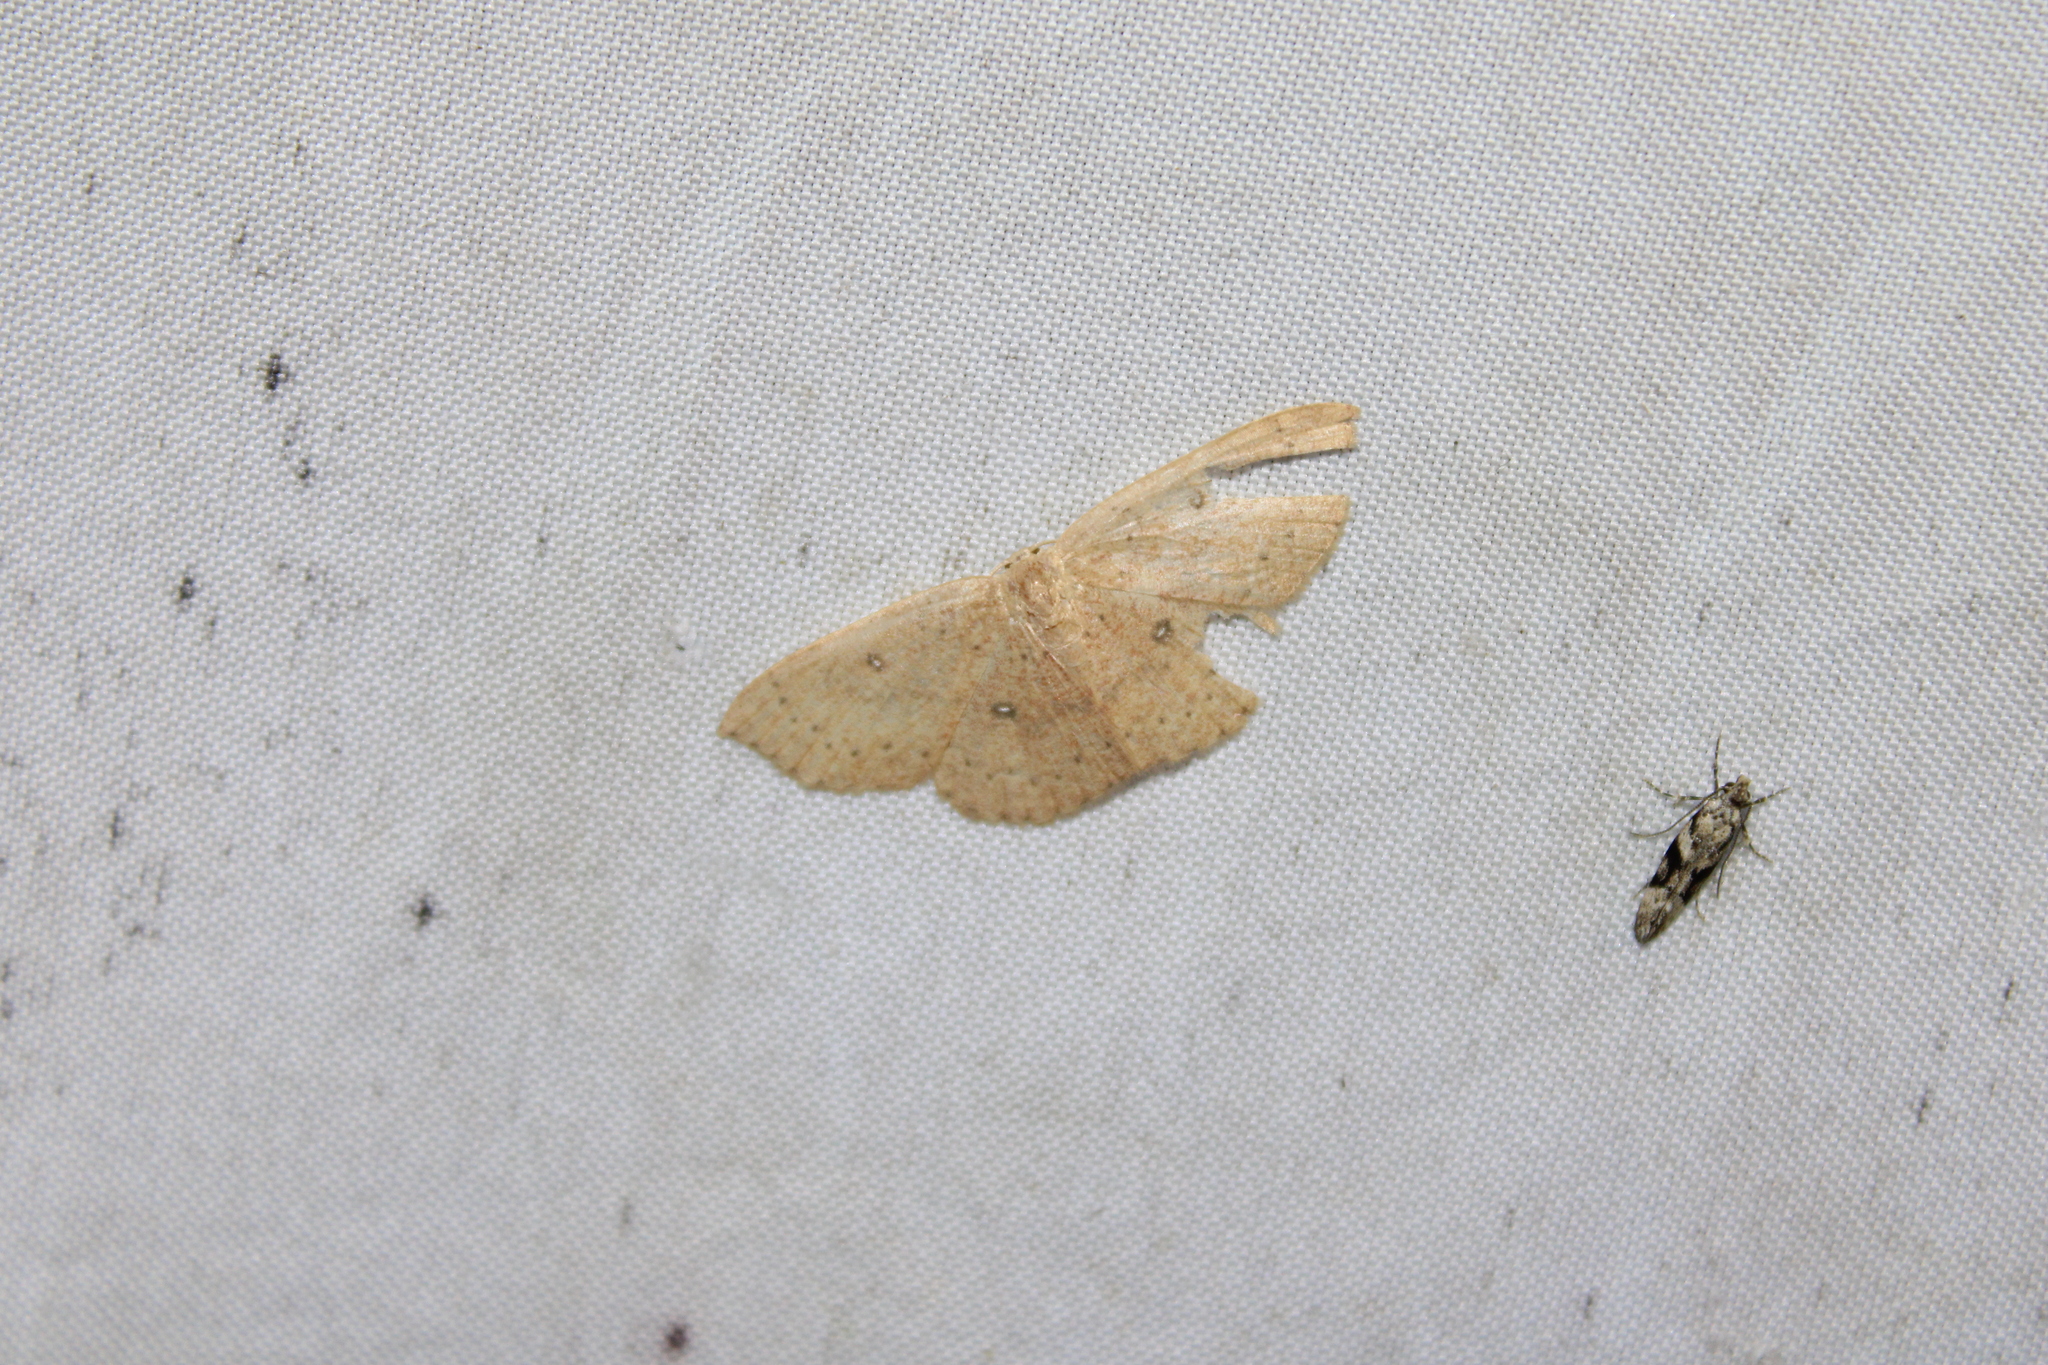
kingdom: Animalia
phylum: Arthropoda
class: Insecta
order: Lepidoptera
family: Geometridae
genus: Cyclophora
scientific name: Cyclophora packardi
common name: Packard's wave
